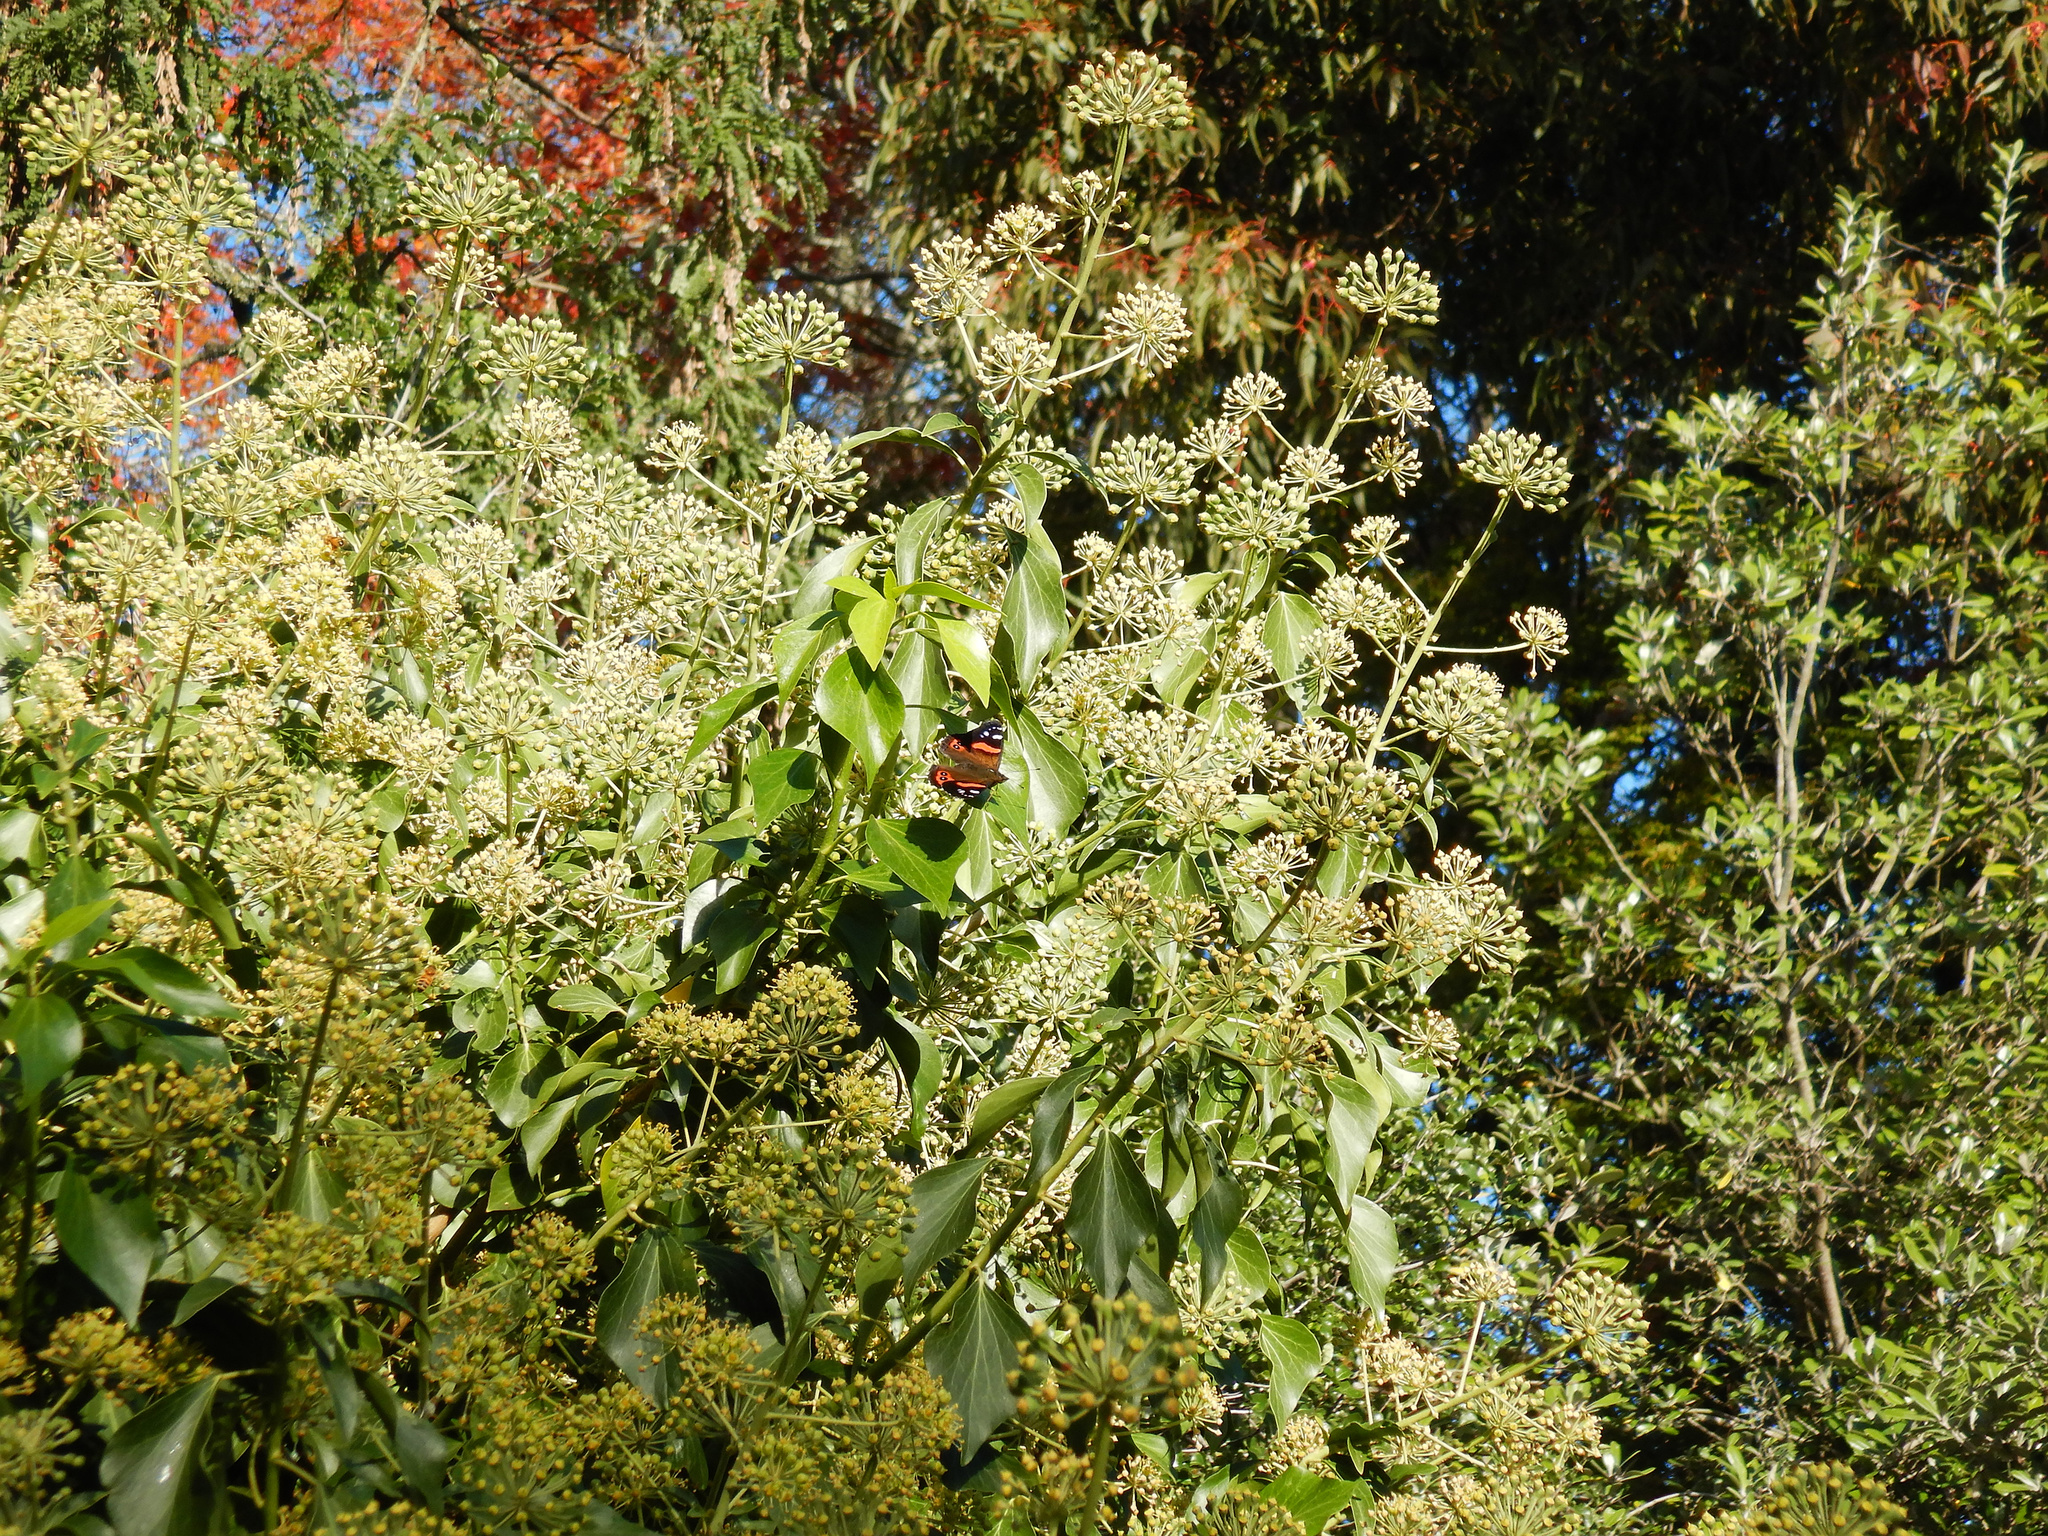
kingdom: Animalia
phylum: Arthropoda
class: Insecta
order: Lepidoptera
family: Nymphalidae
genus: Vanessa
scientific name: Vanessa gonerilla
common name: New zealand red admiral
